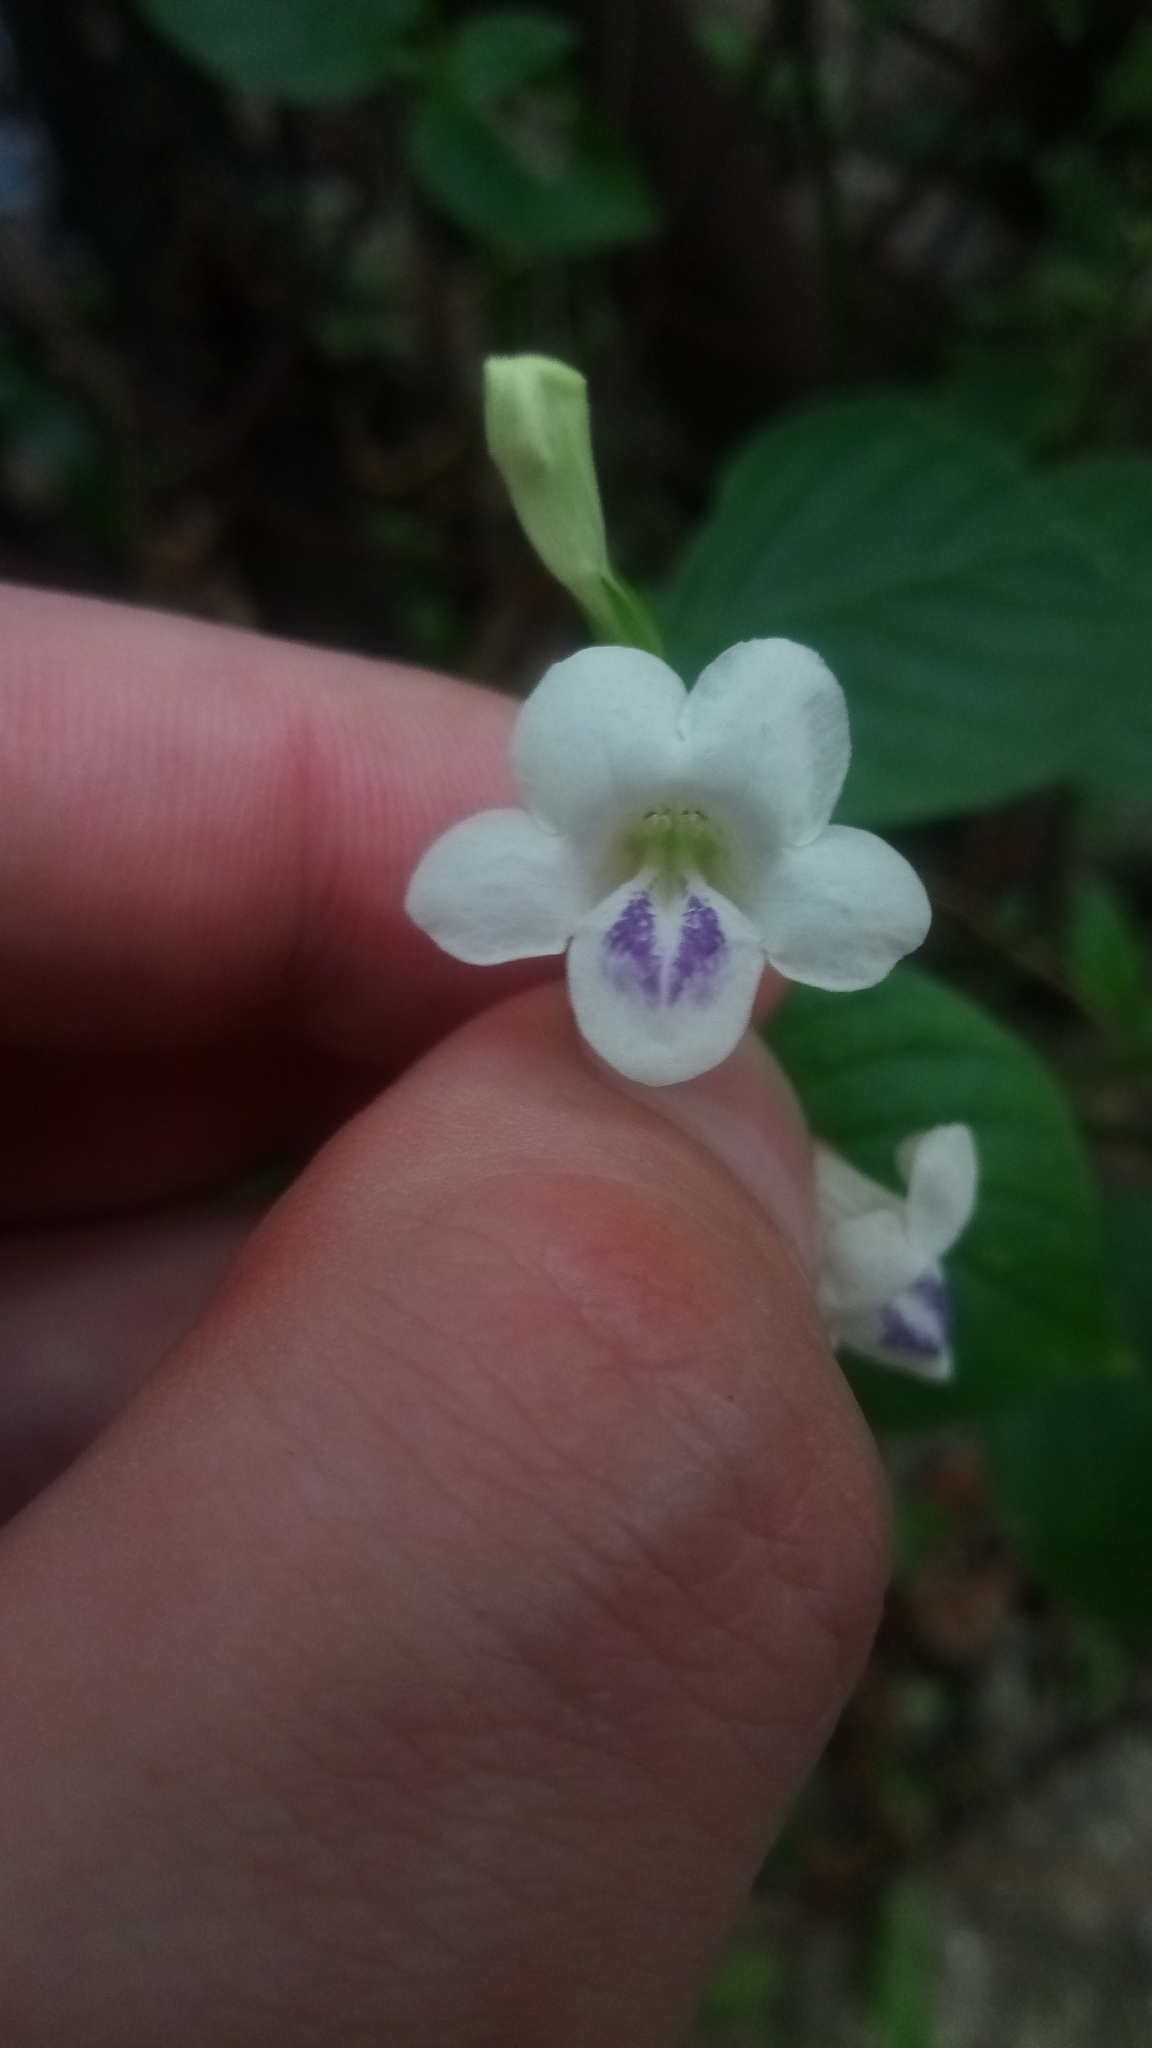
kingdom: Plantae
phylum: Tracheophyta
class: Magnoliopsida
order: Lamiales
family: Acanthaceae
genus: Asystasia
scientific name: Asystasia intrusa
